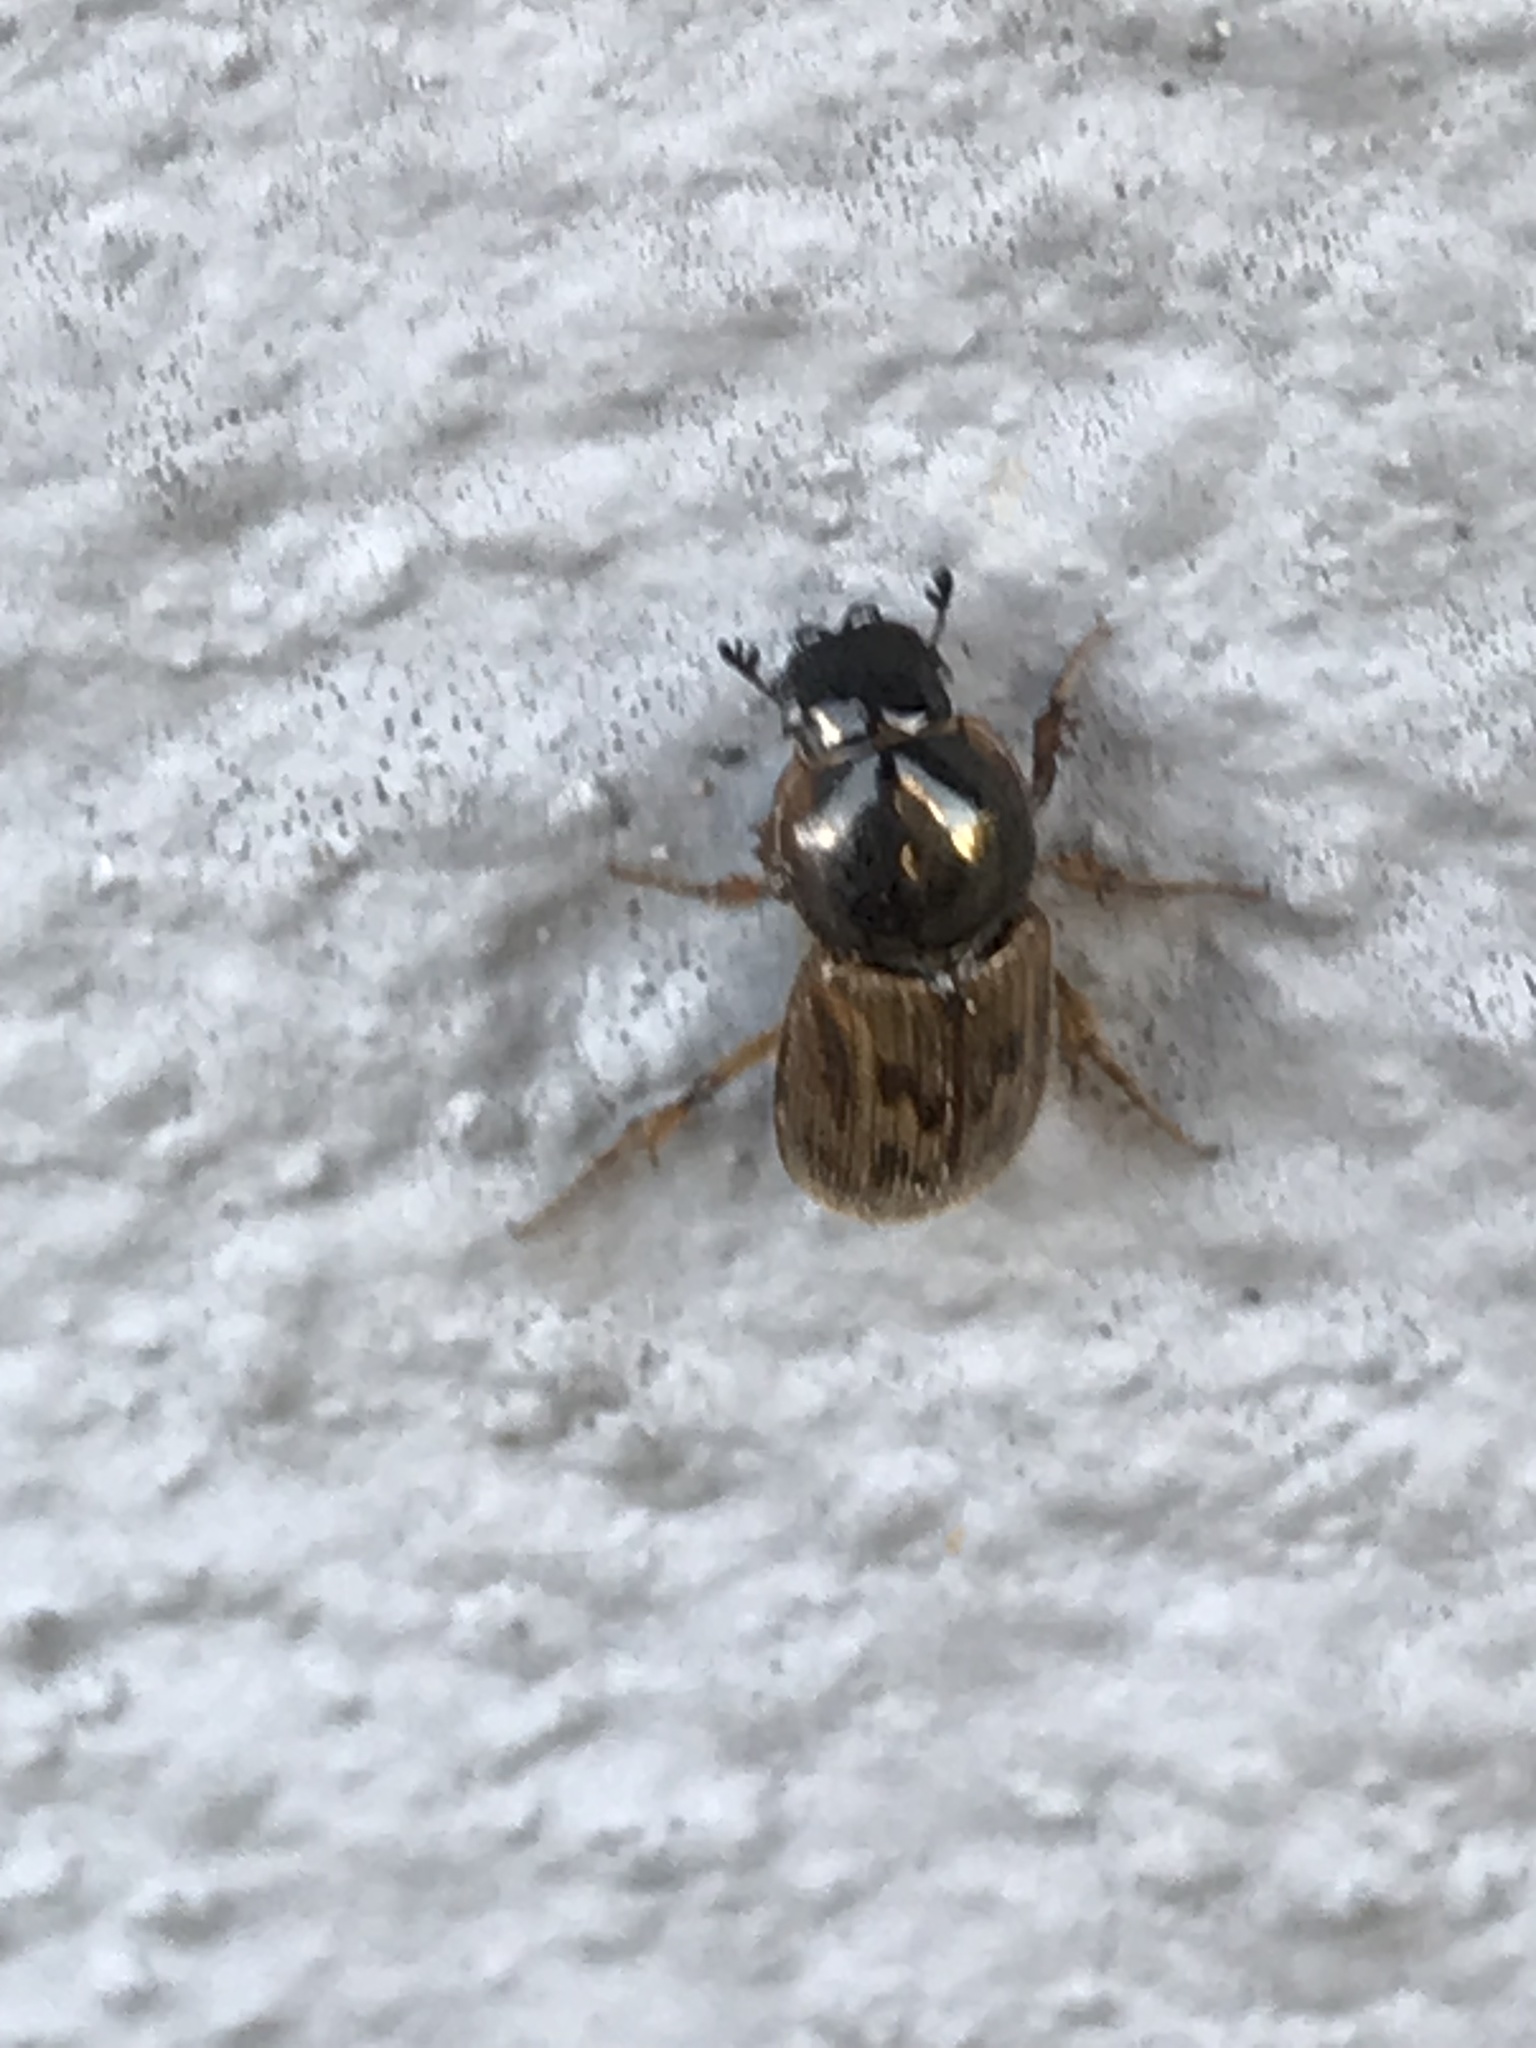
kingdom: Animalia
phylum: Arthropoda
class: Insecta
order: Coleoptera
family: Scarabaeidae
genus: Nimbus
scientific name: Nimbus contaminatus
